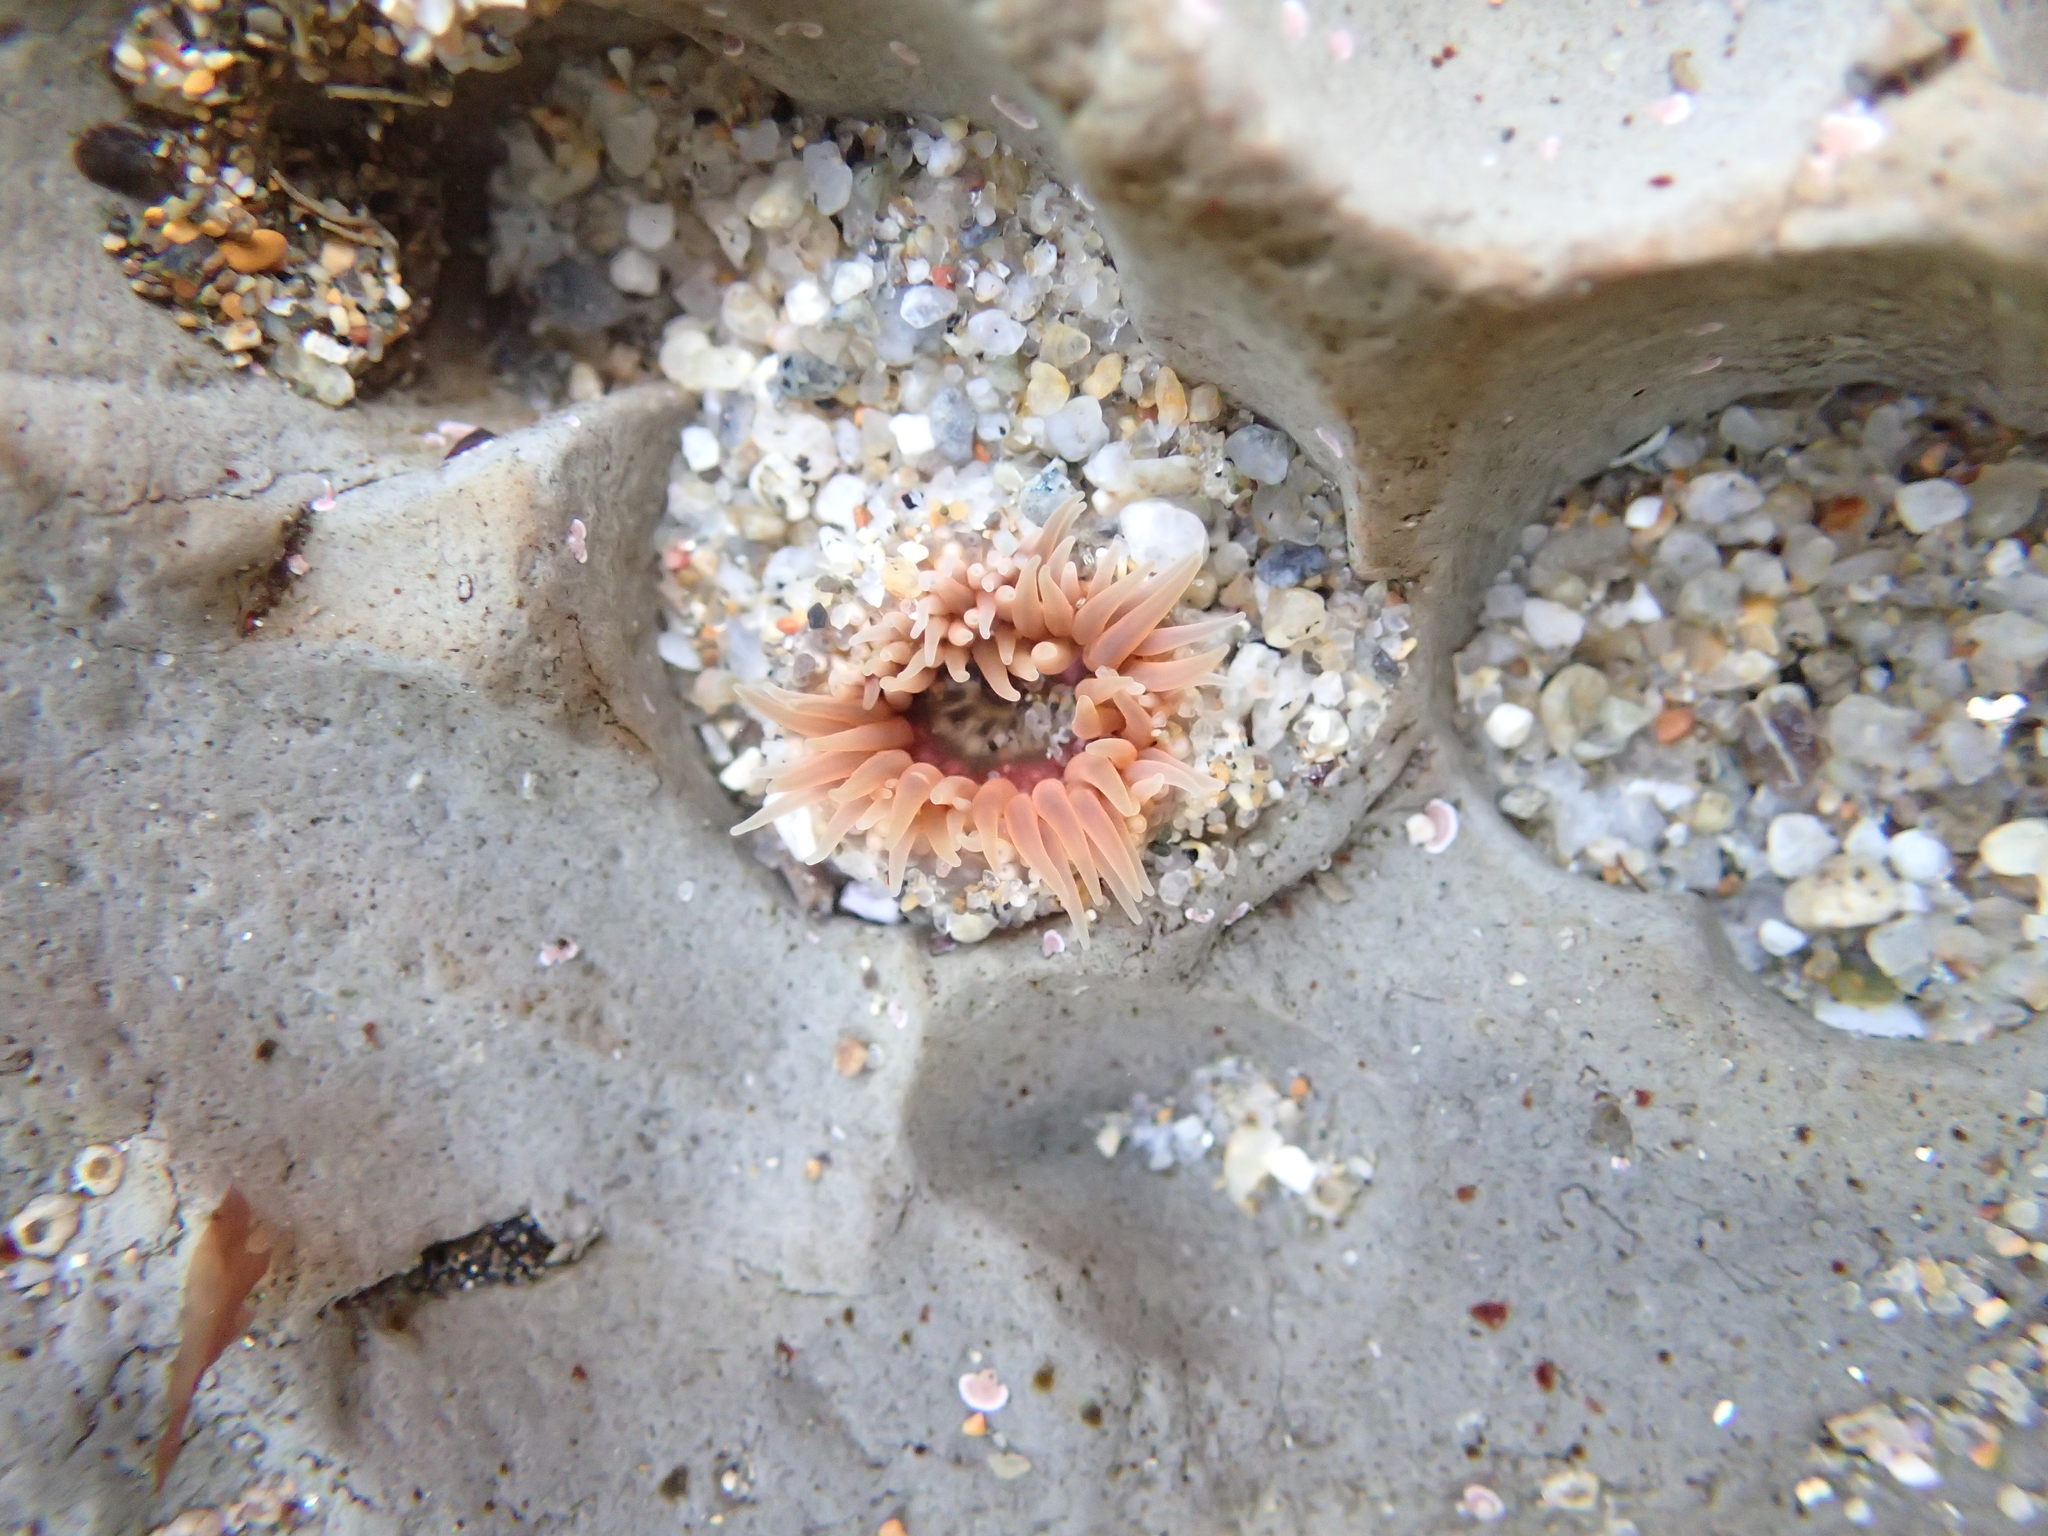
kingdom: Animalia
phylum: Cnidaria
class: Anthozoa
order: Actiniaria
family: Actiniidae
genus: Anthopleura
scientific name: Anthopleura artemisia
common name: Buried sea anemone
